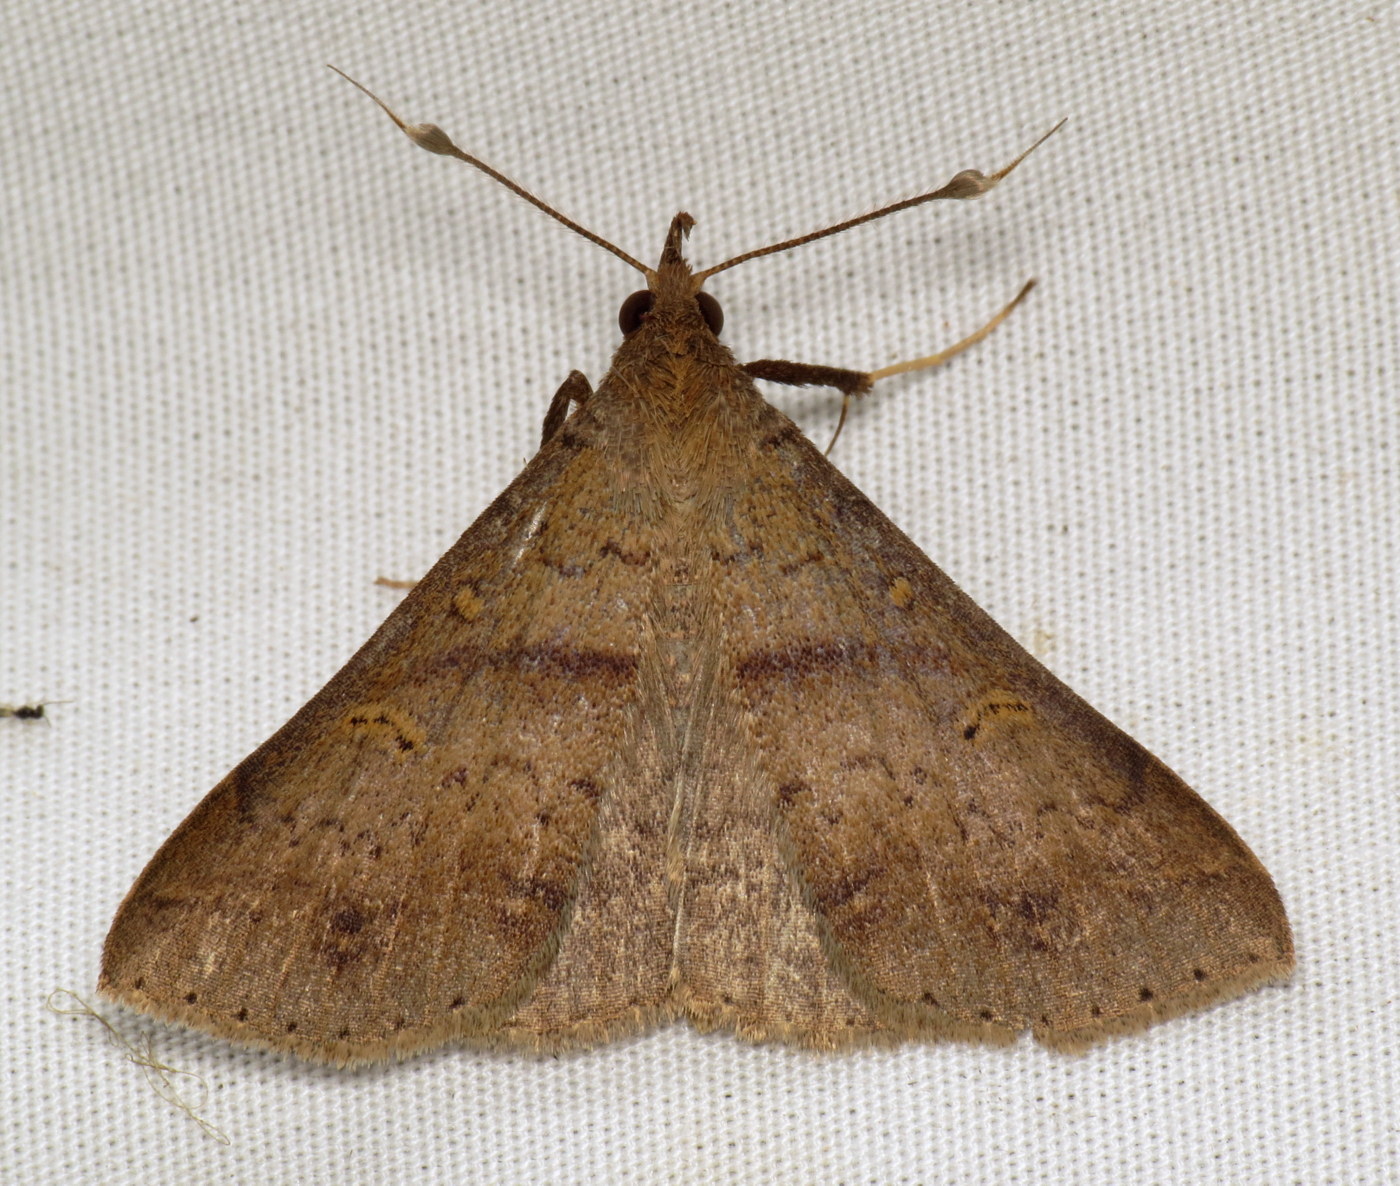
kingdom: Animalia
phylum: Arthropoda
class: Insecta
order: Lepidoptera
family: Erebidae
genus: Renia
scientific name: Renia discoloralis
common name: Discolored renia moth
